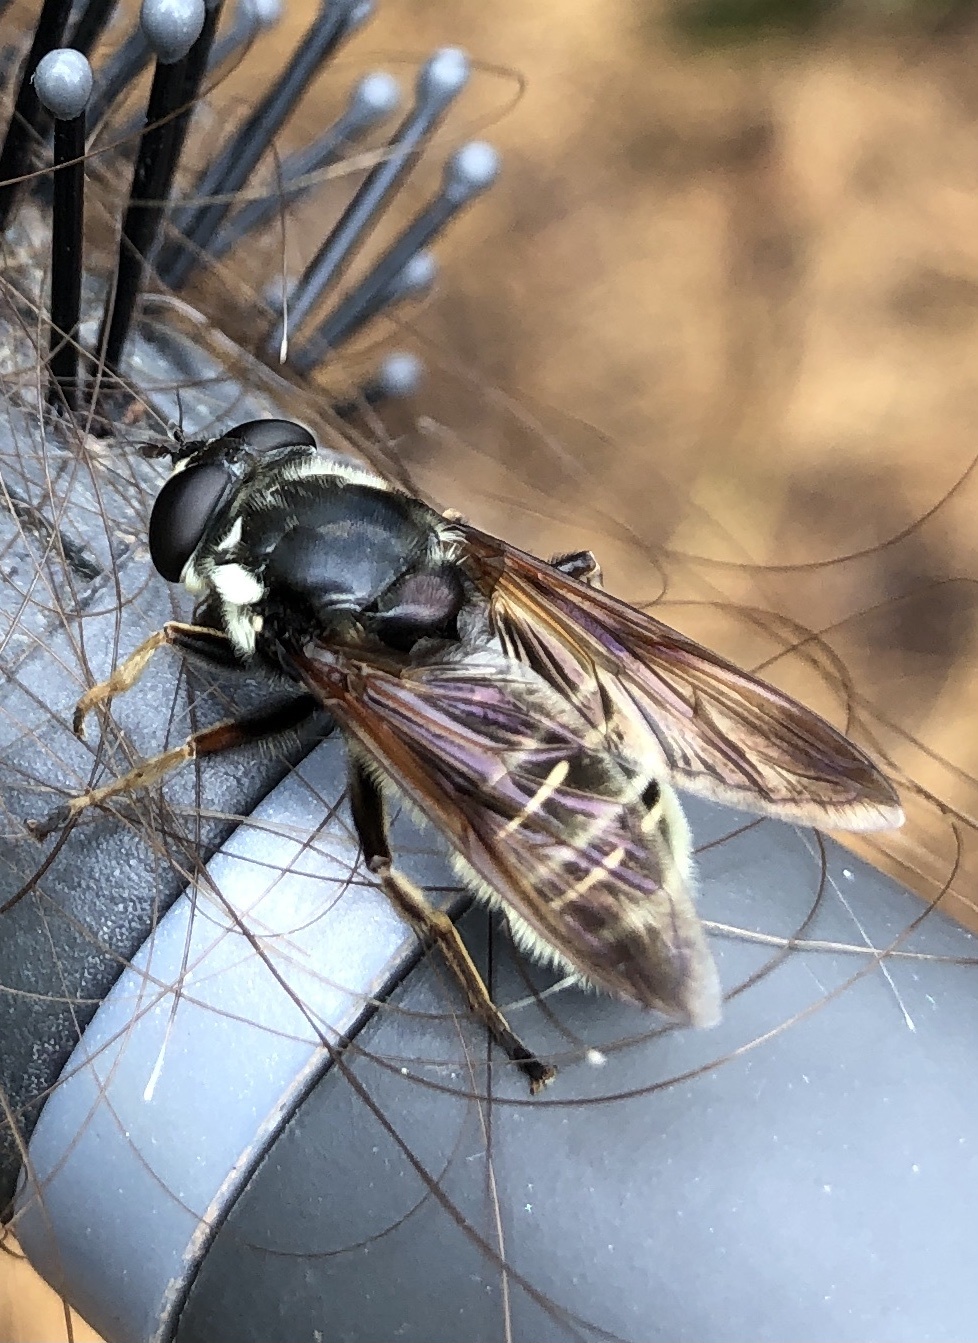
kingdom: Animalia
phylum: Arthropoda
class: Insecta
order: Diptera
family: Syrphidae
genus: Sericomyia
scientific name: Sericomyia militaris
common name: Narrow-banded pond fly
